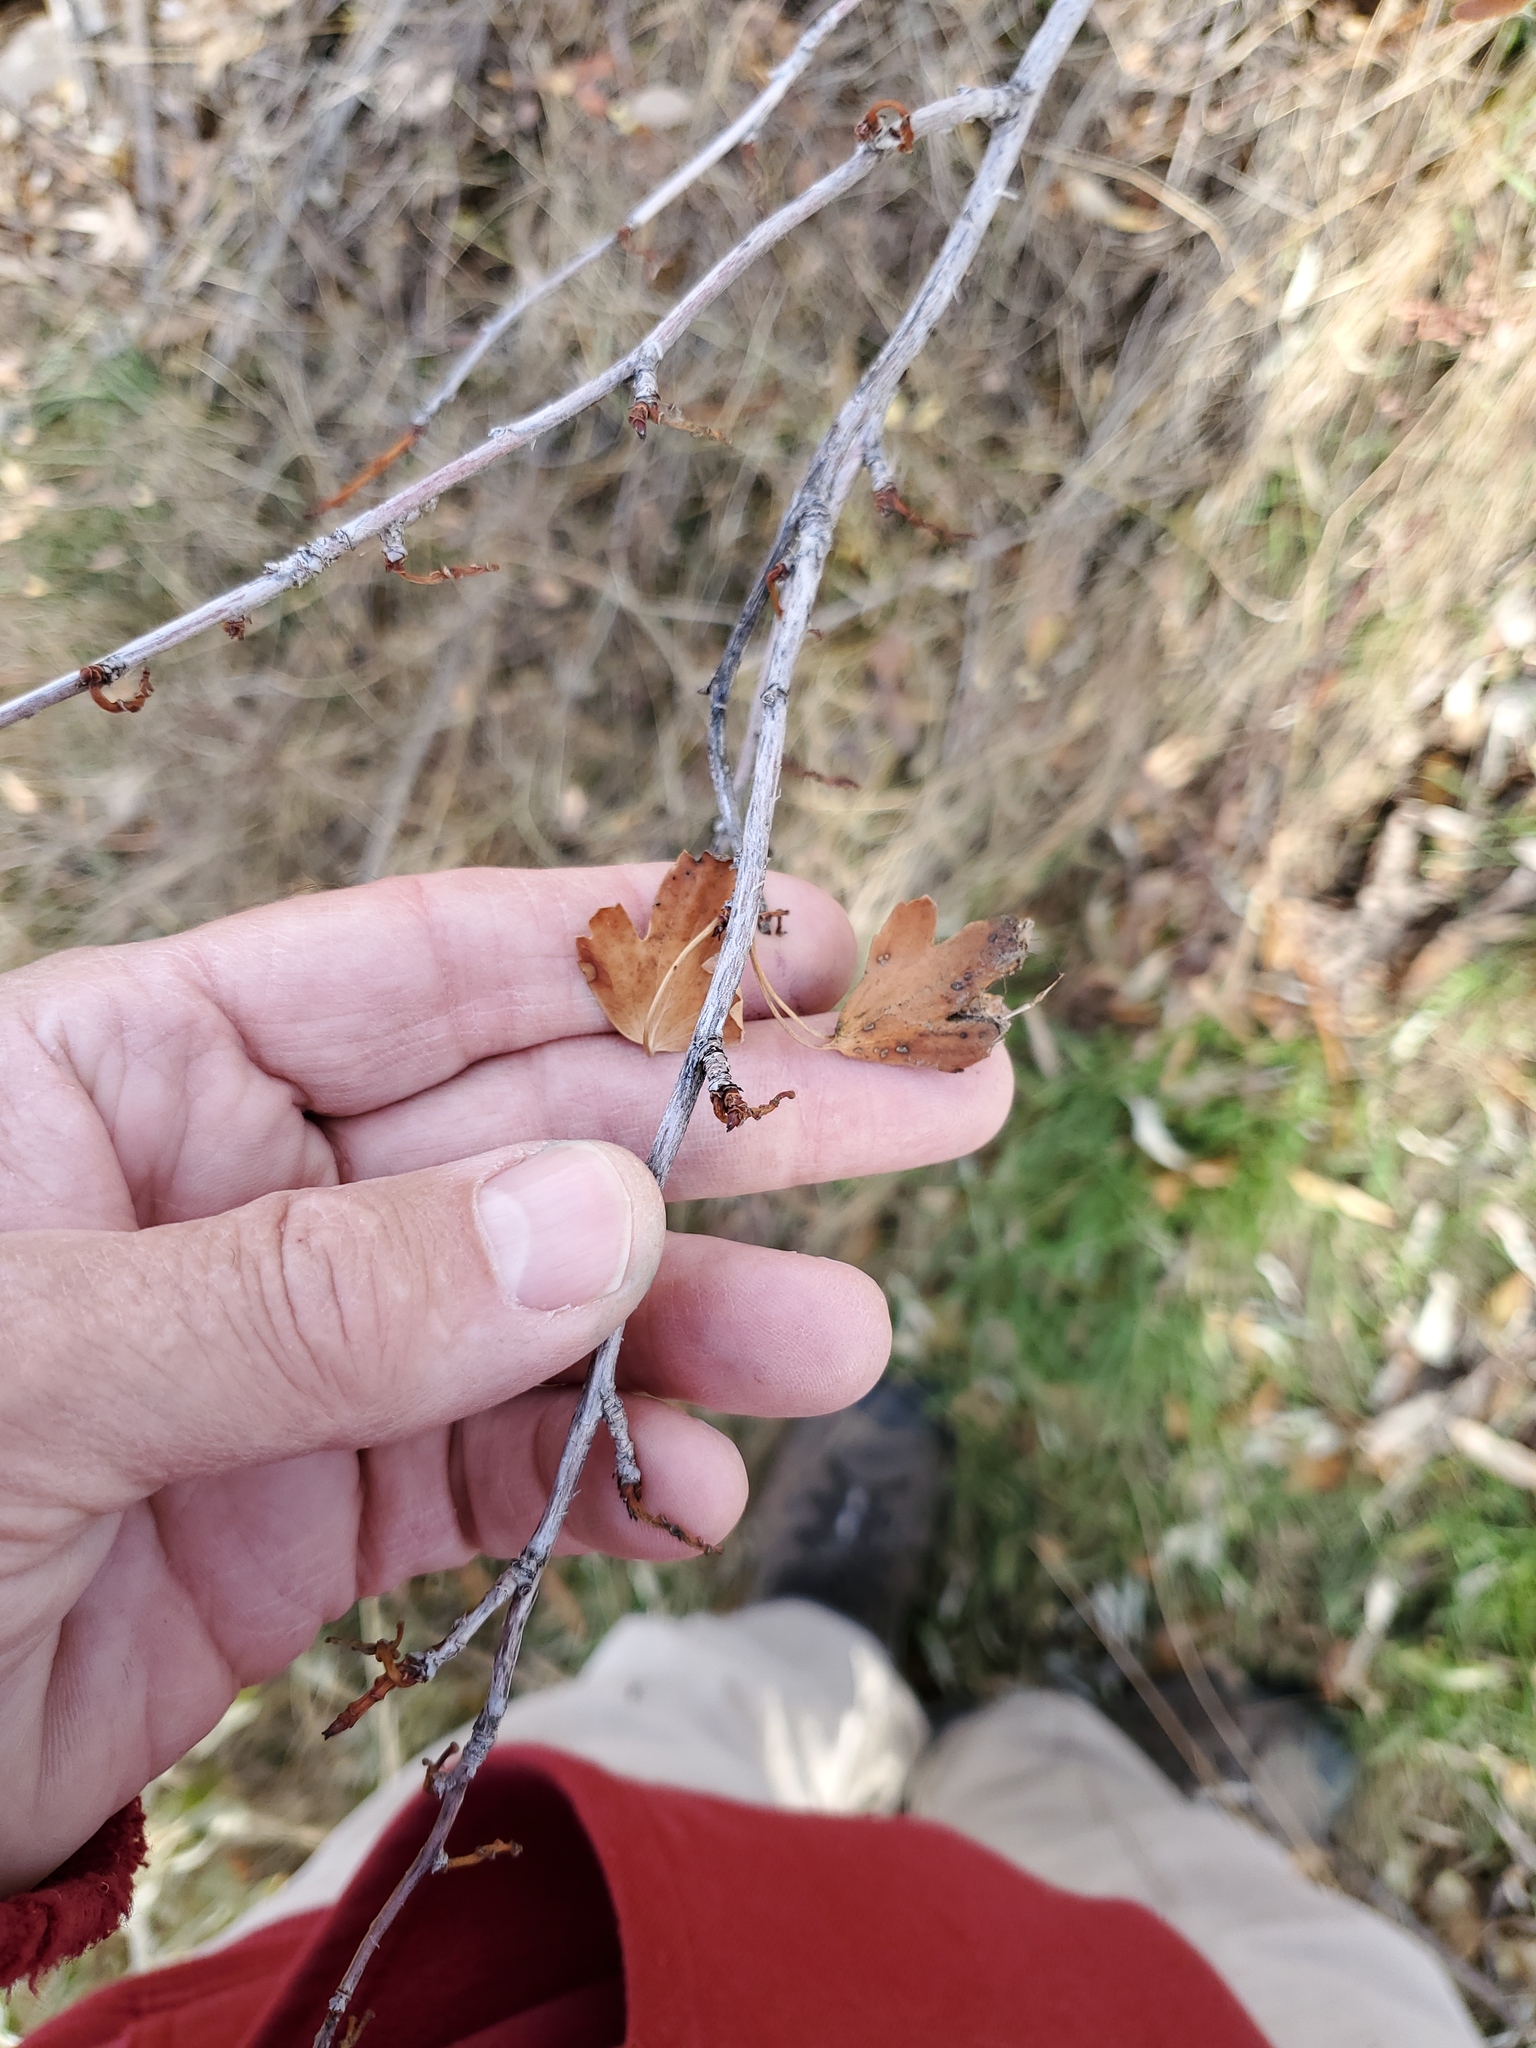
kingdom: Plantae
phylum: Tracheophyta
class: Magnoliopsida
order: Saxifragales
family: Grossulariaceae
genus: Ribes
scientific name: Ribes aureum
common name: Golden currant
